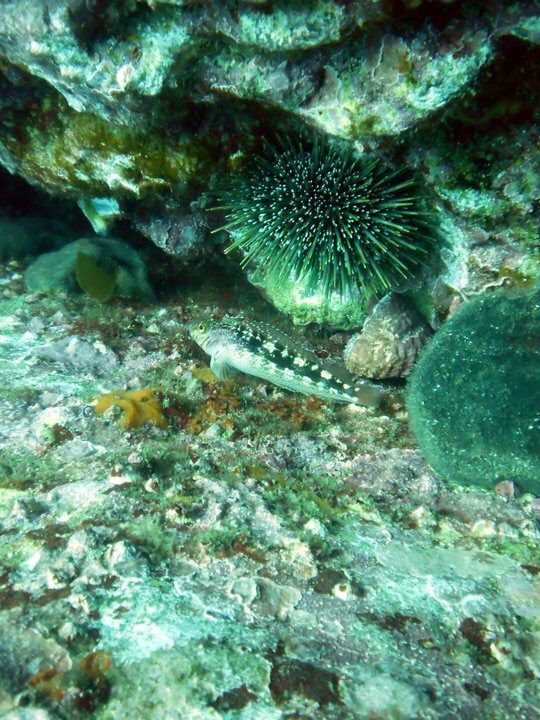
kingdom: Animalia
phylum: Chordata
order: Perciformes
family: Tripterygiidae
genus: Forsterygion
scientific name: Forsterygion varium
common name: Variable triplefin
